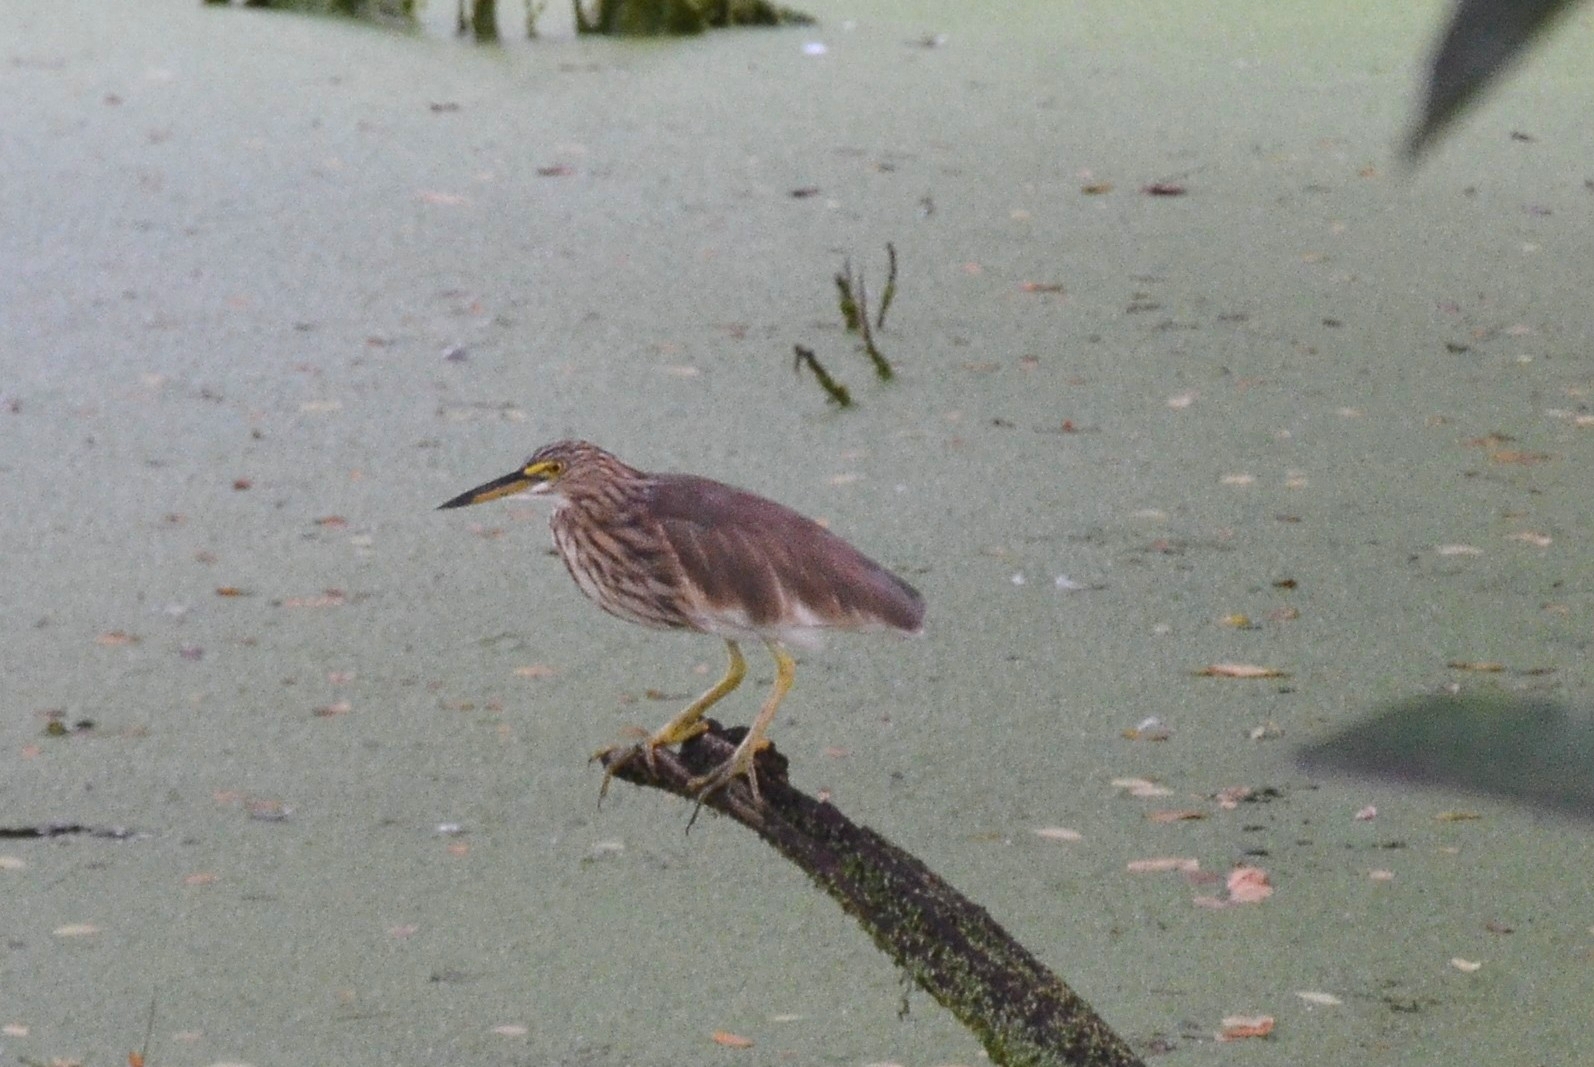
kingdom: Animalia
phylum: Chordata
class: Aves
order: Pelecaniformes
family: Ardeidae
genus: Ardeola
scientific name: Ardeola grayii
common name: Indian pond heron
